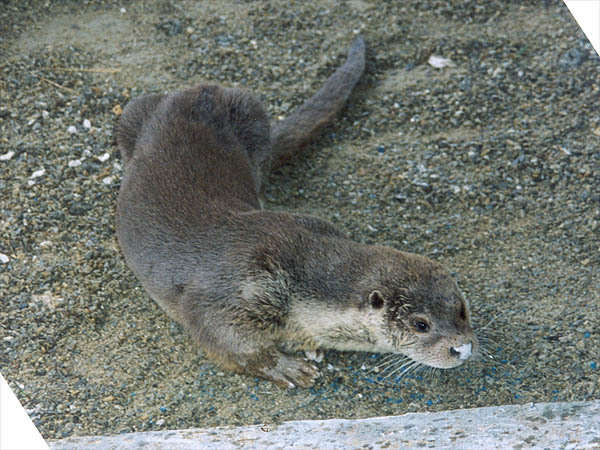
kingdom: Animalia
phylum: Chordata
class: Mammalia
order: Carnivora
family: Mustelidae
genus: Lutra
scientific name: Lutra lutra
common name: European otter
